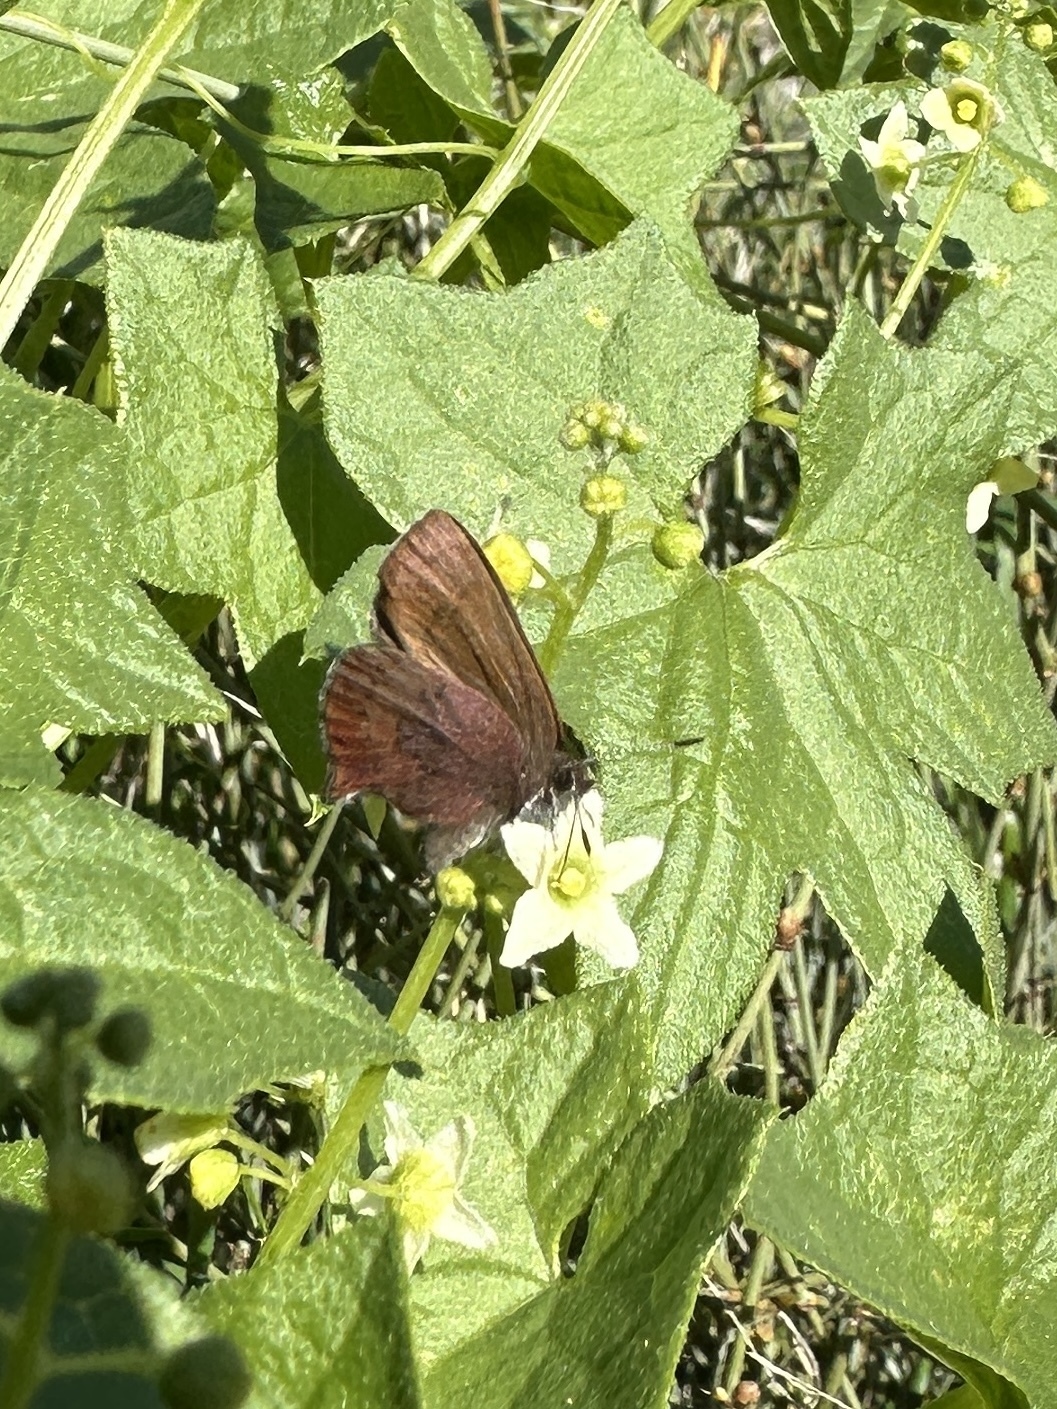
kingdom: Animalia
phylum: Arthropoda
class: Insecta
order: Lepidoptera
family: Lycaenidae
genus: Thecla
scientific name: Thecla iroides
